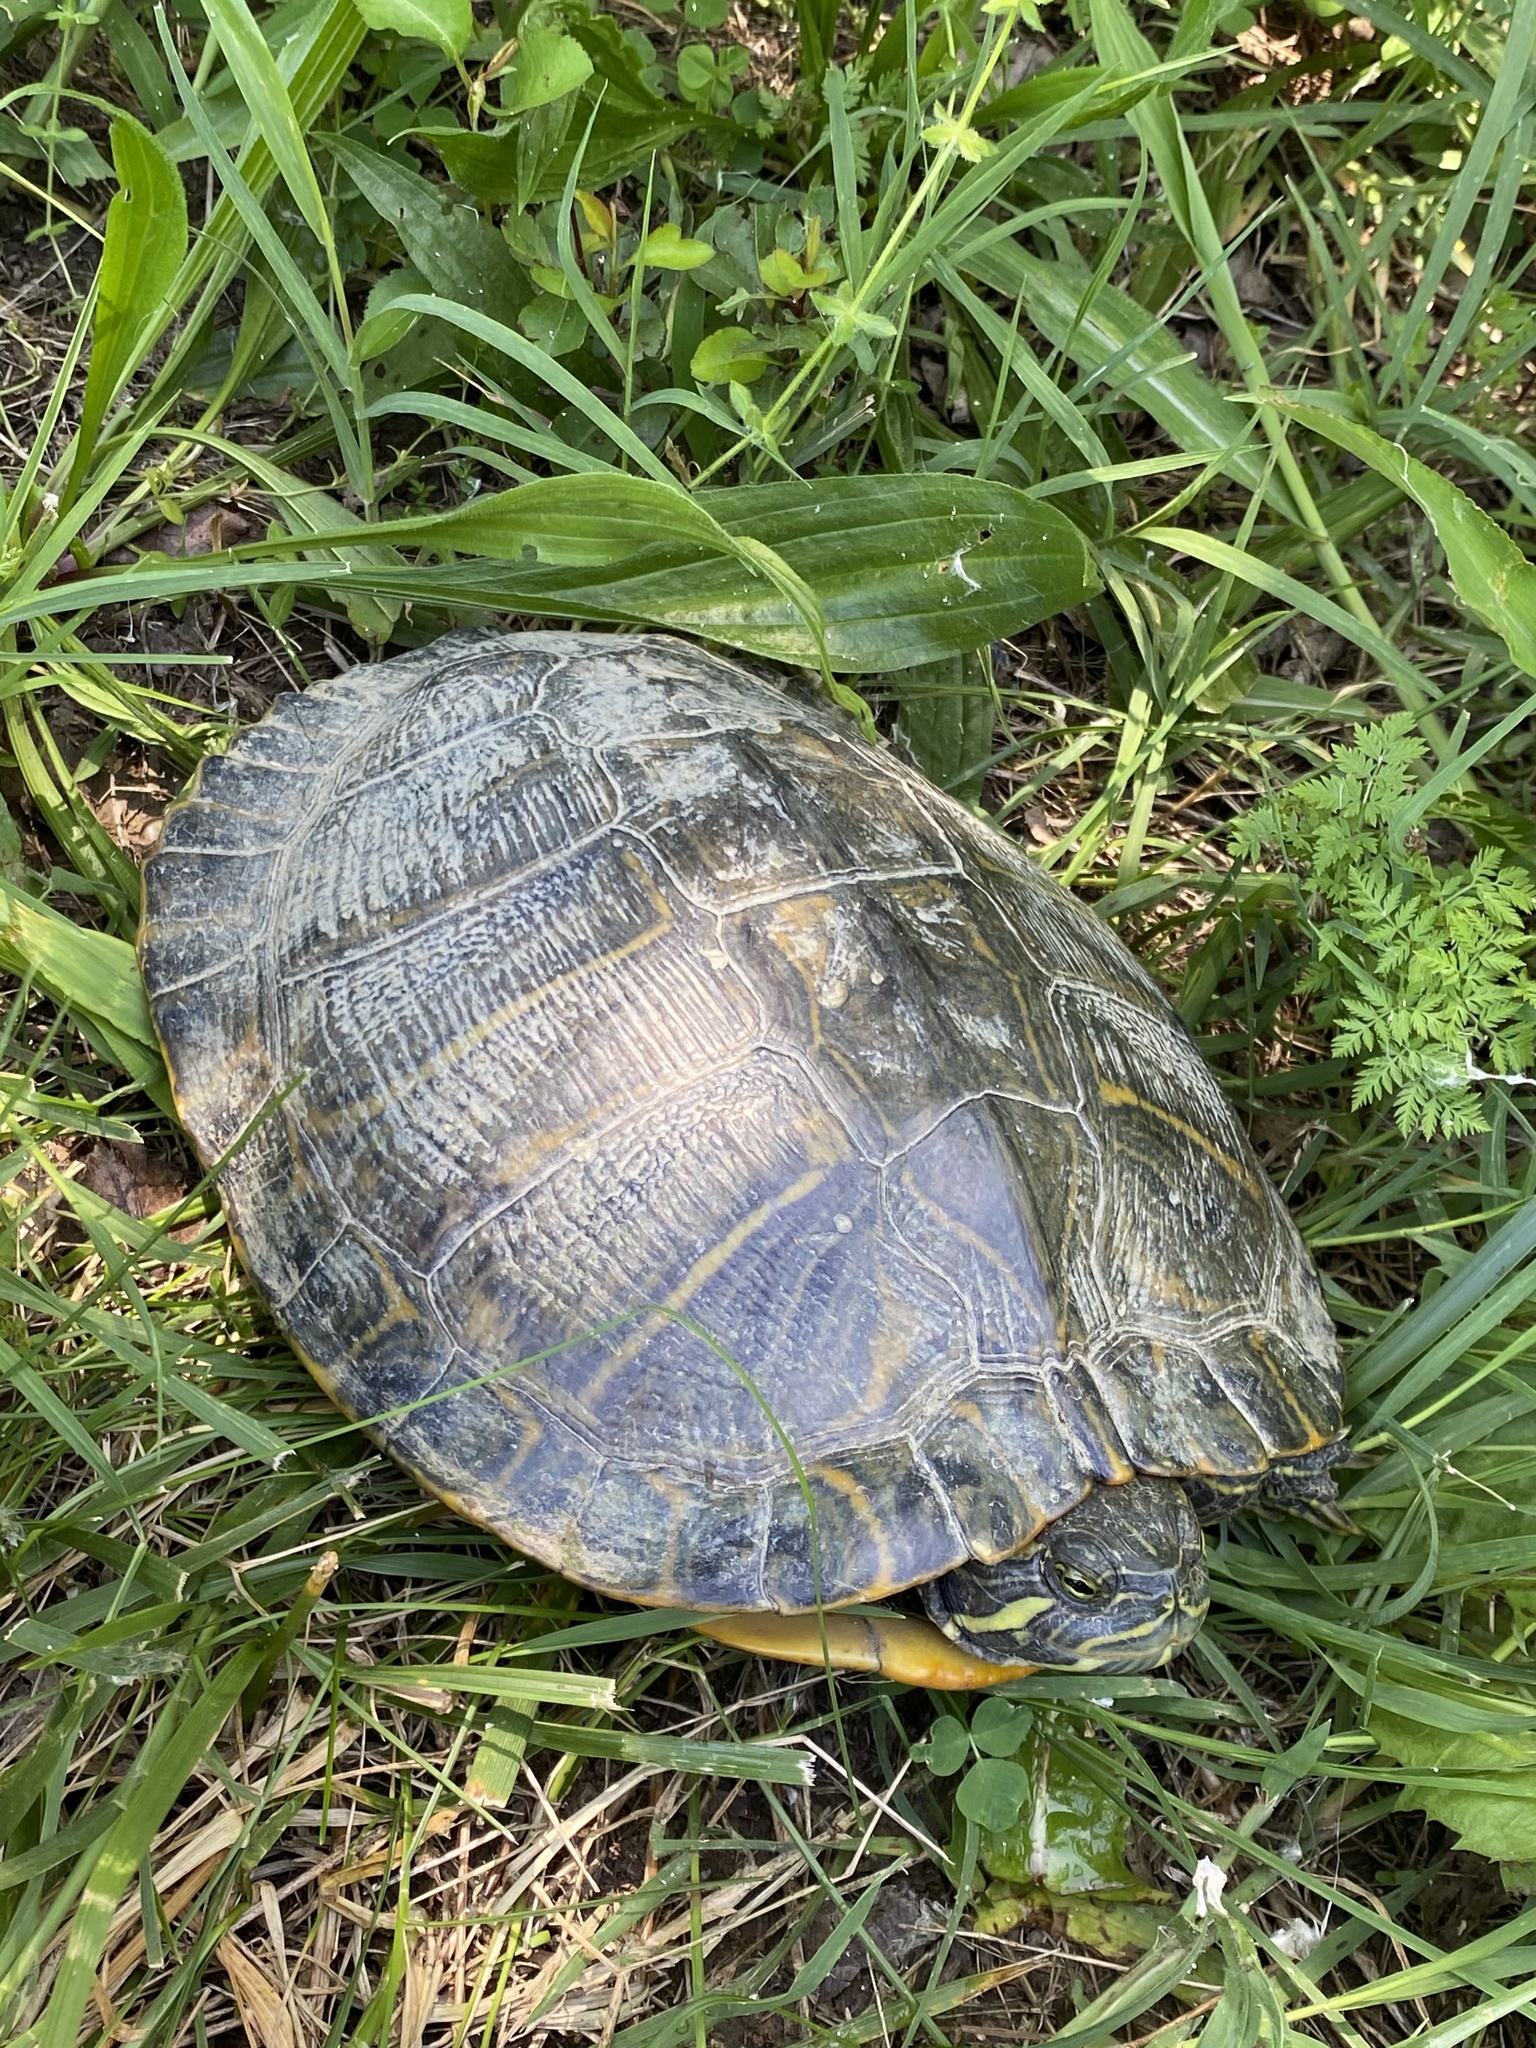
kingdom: Animalia
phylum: Chordata
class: Testudines
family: Emydidae
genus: Trachemys
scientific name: Trachemys scripta
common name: Slider
